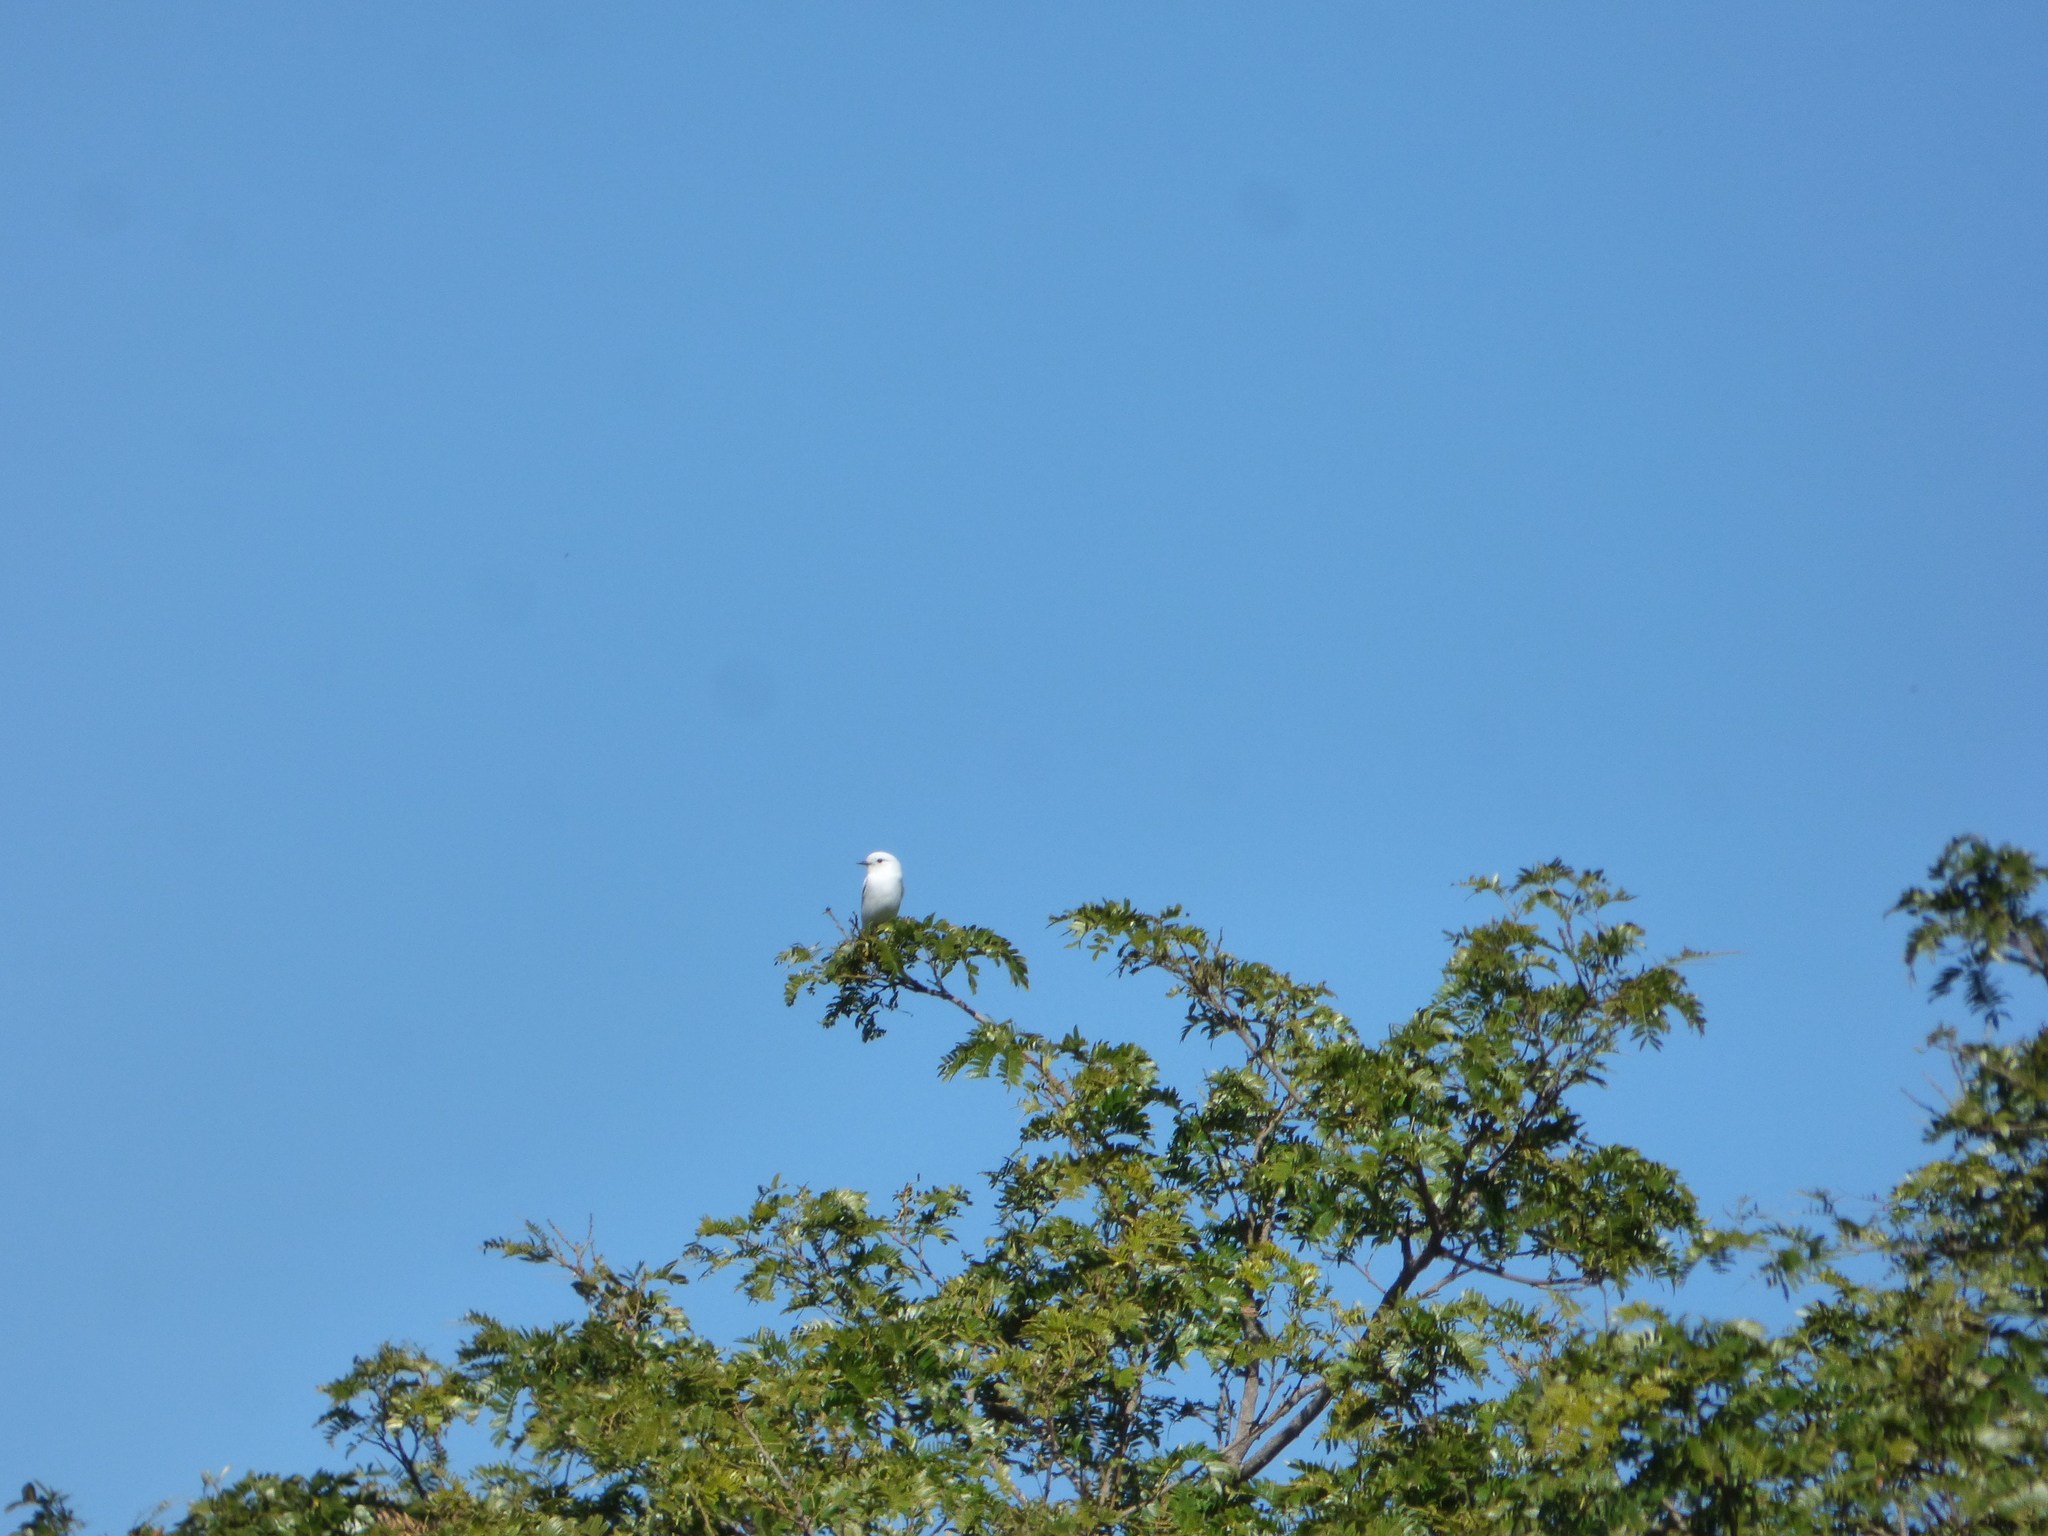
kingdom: Animalia
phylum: Chordata
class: Aves
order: Passeriformes
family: Tyrannidae
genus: Xolmis
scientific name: Xolmis irupero
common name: White monjita
